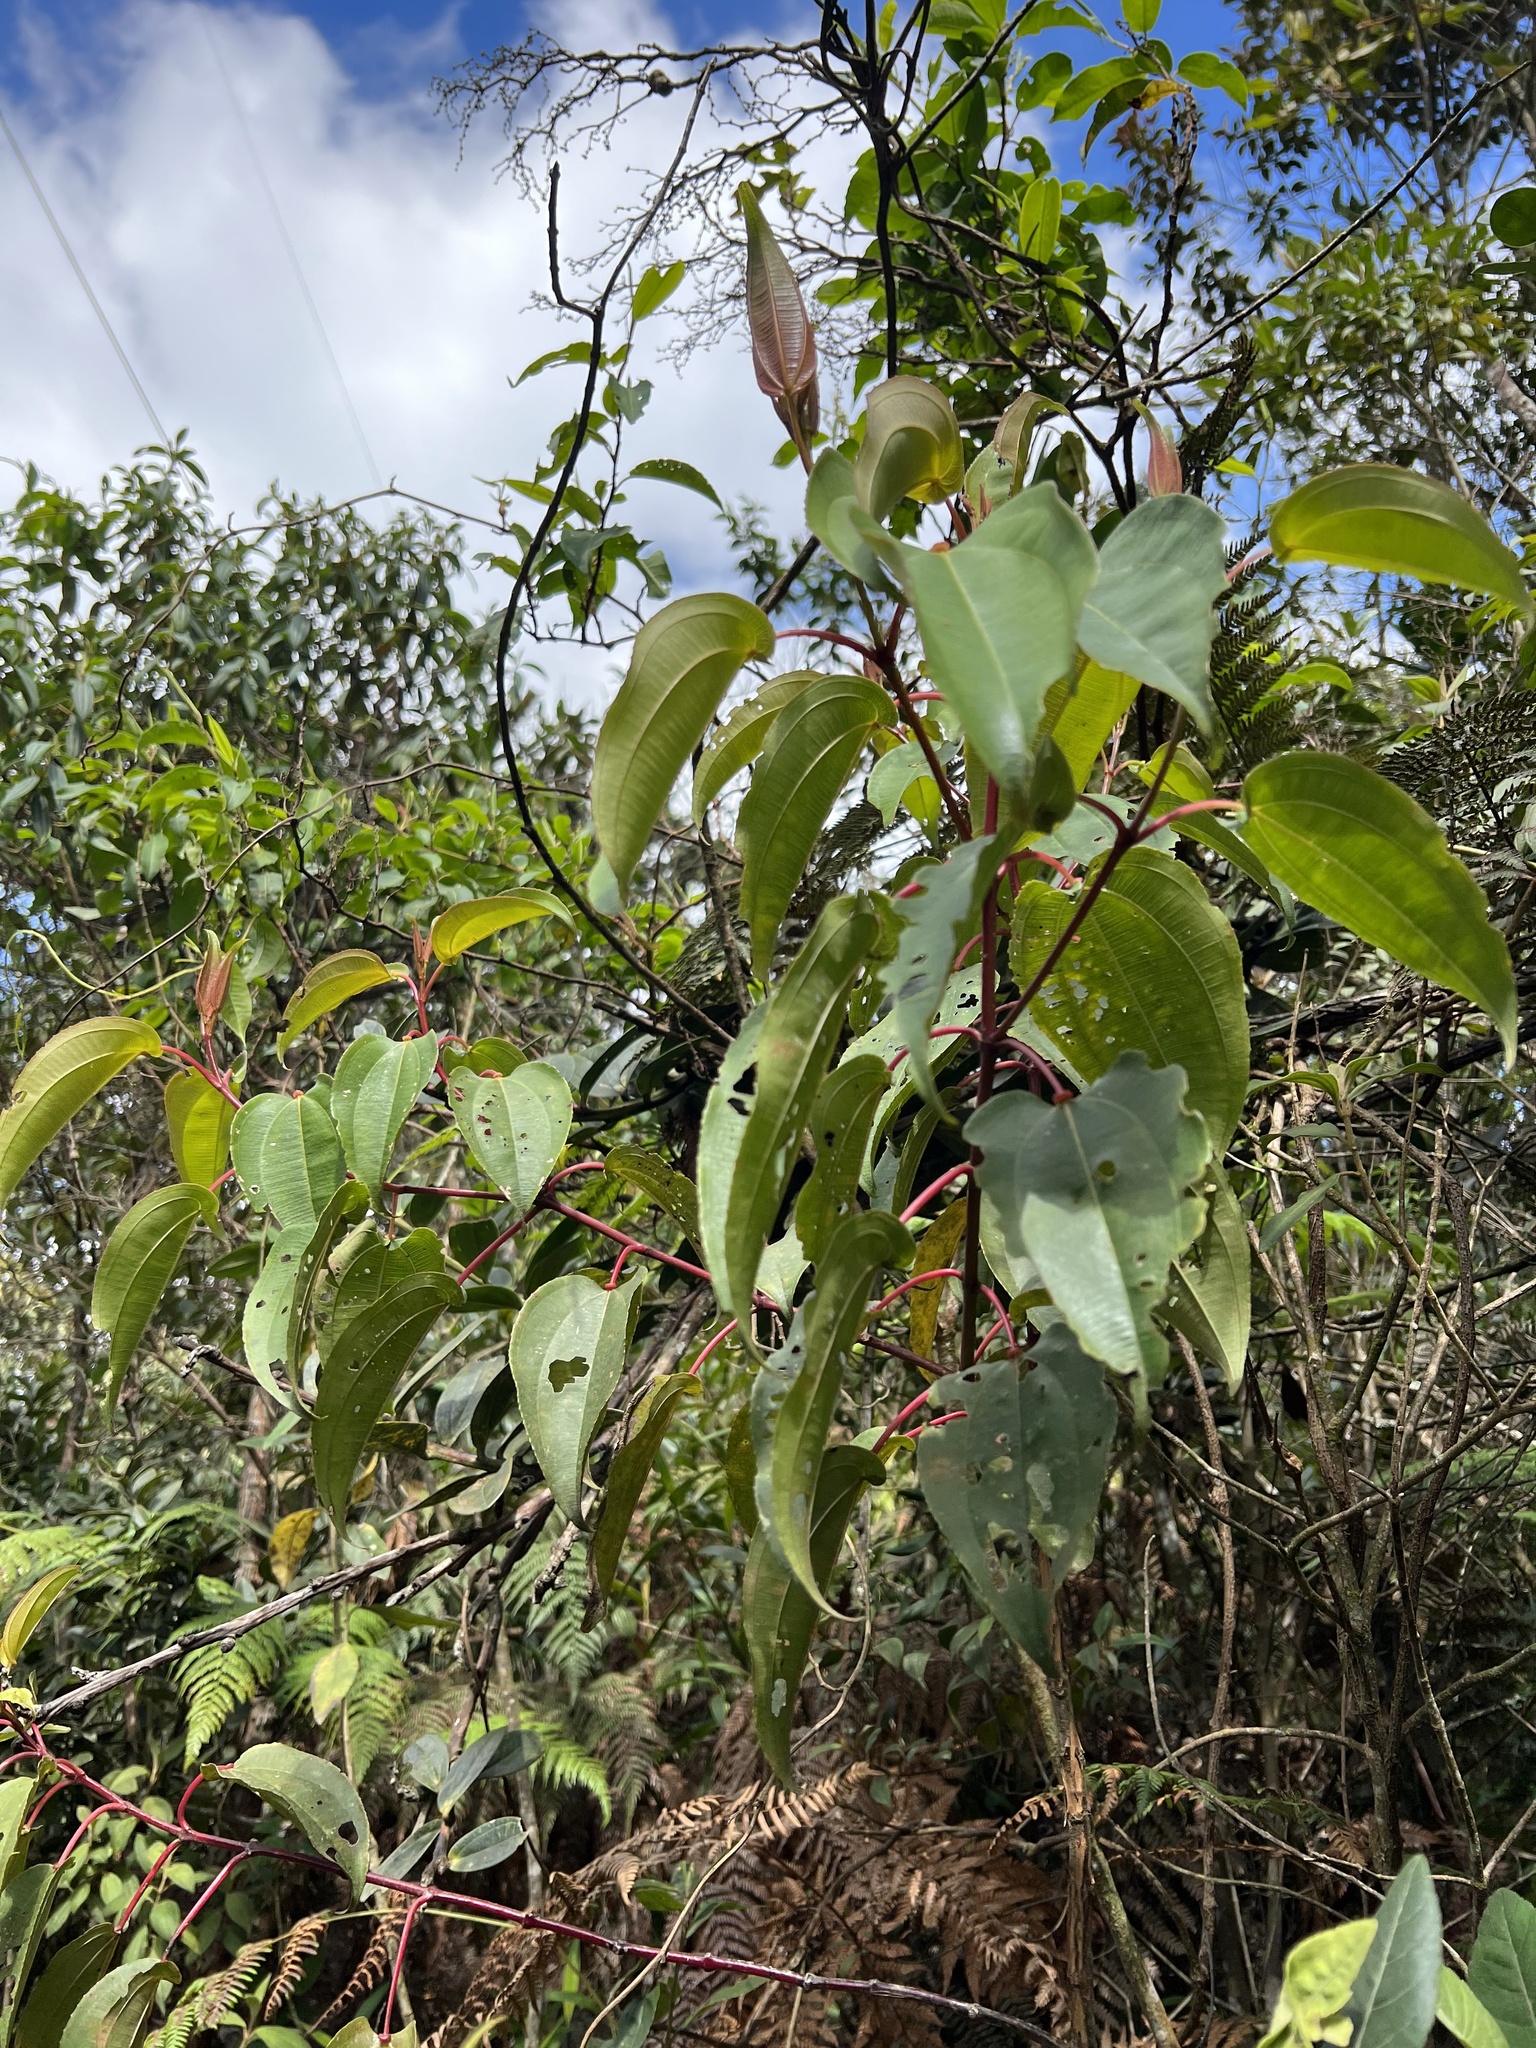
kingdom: Plantae
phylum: Tracheophyta
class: Magnoliopsida
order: Myrtales
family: Melastomataceae
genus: Axinaea
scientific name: Axinaea scutigera
